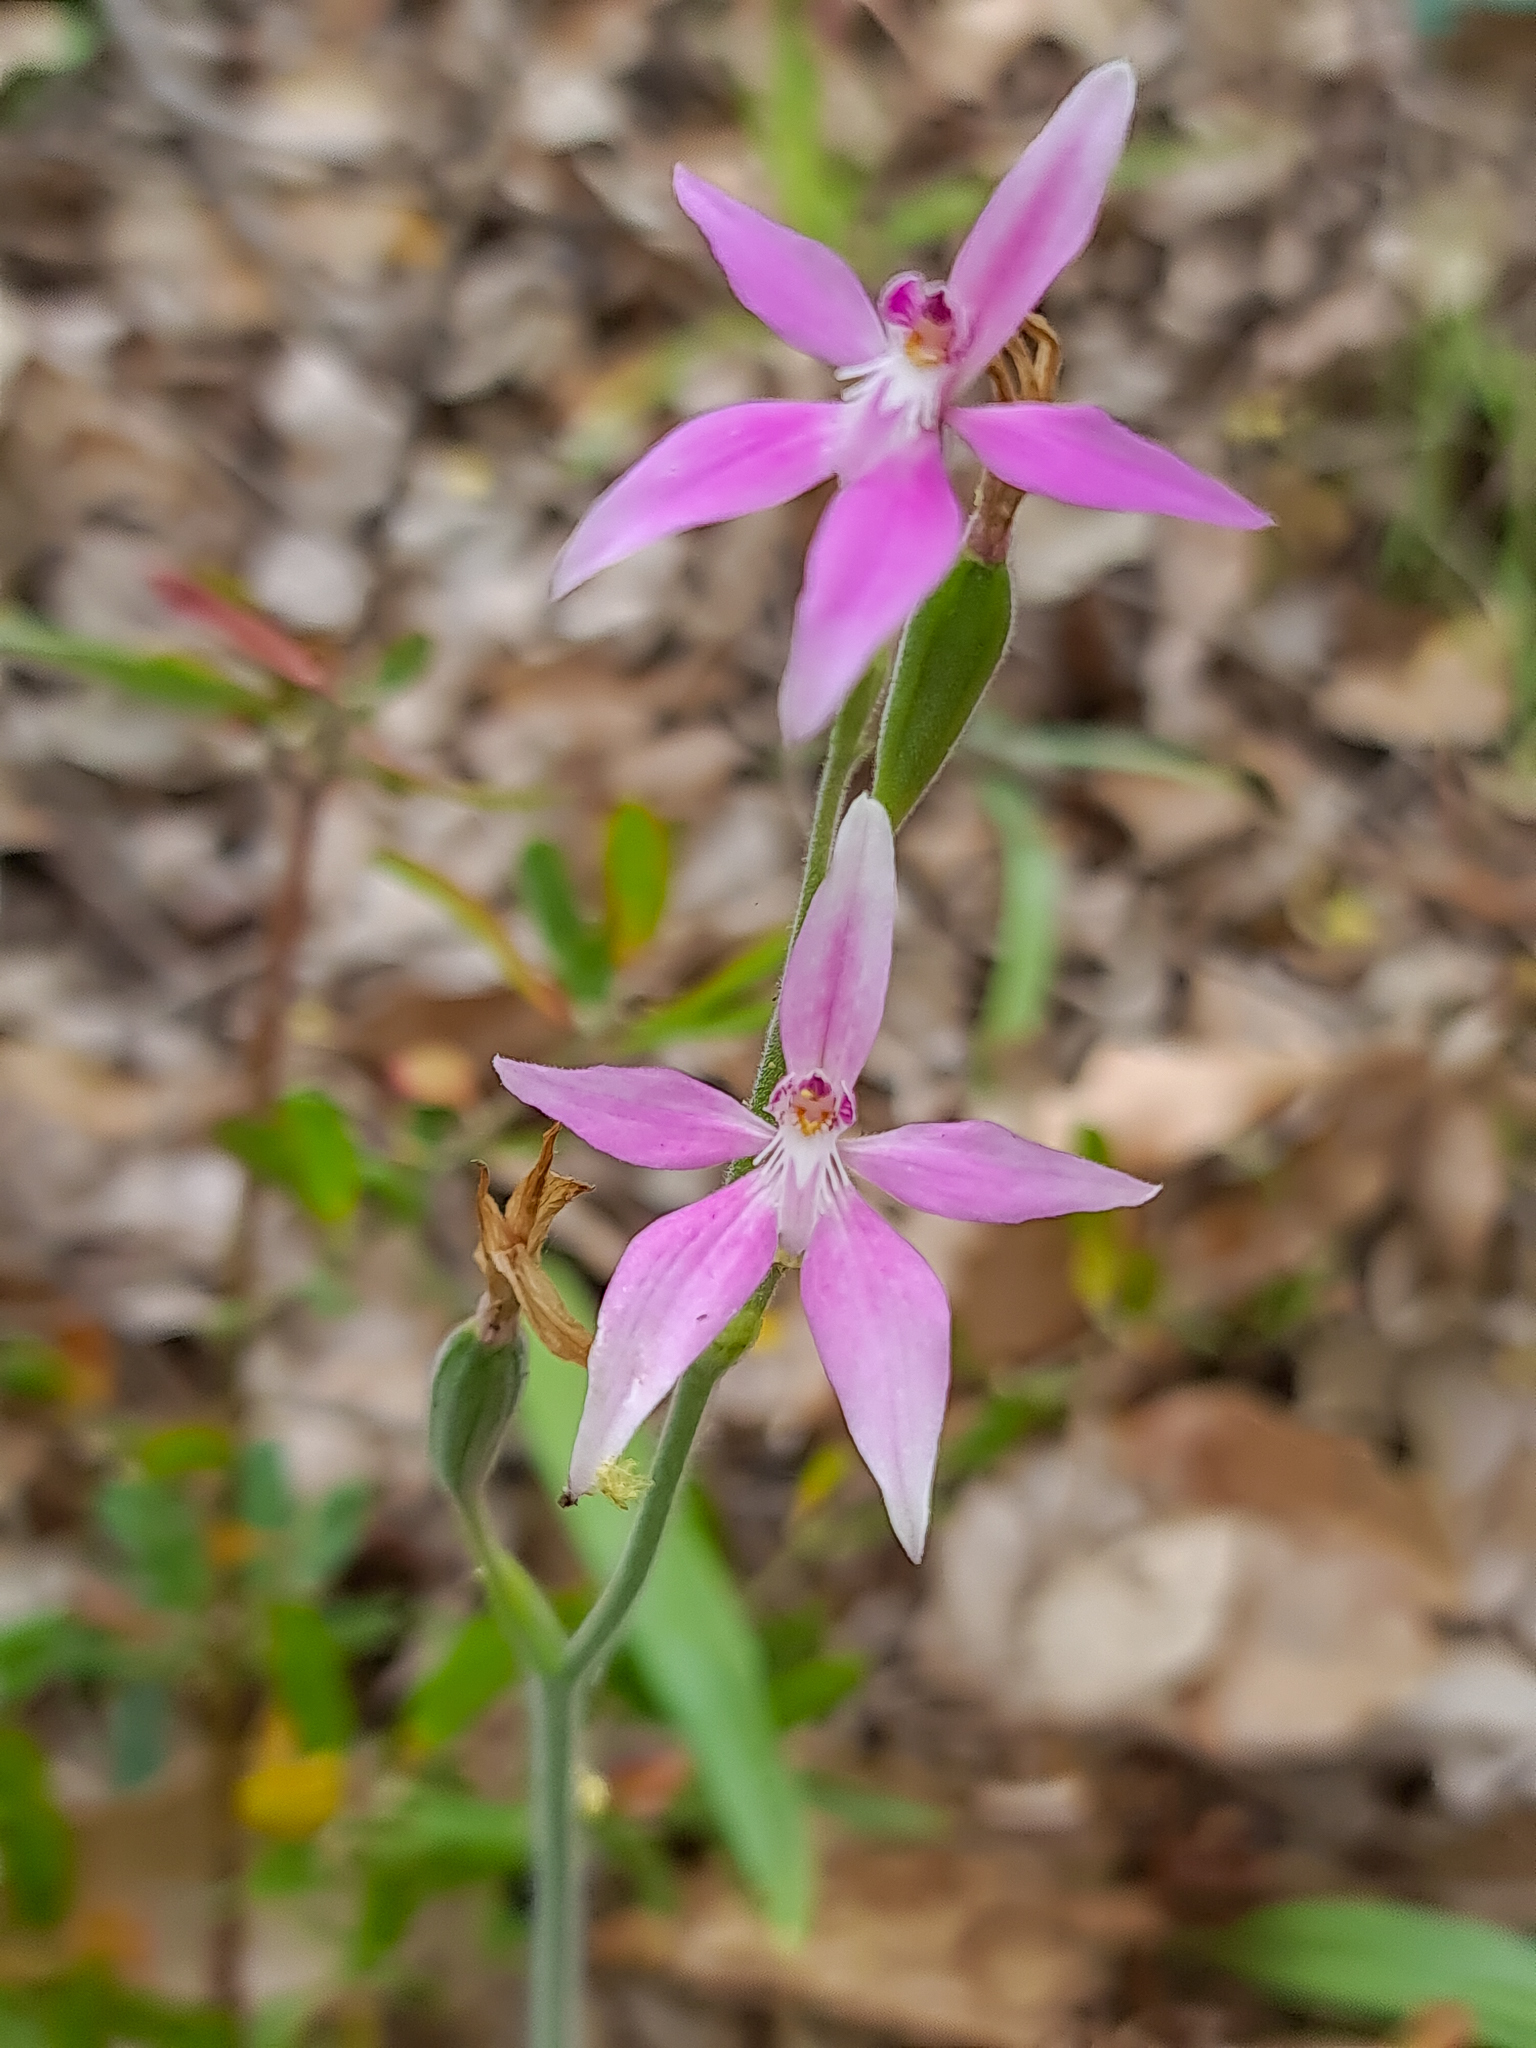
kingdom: Plantae
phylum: Tracheophyta
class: Liliopsida
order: Asparagales
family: Orchidaceae
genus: Caladenia
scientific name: Caladenia latifolia
